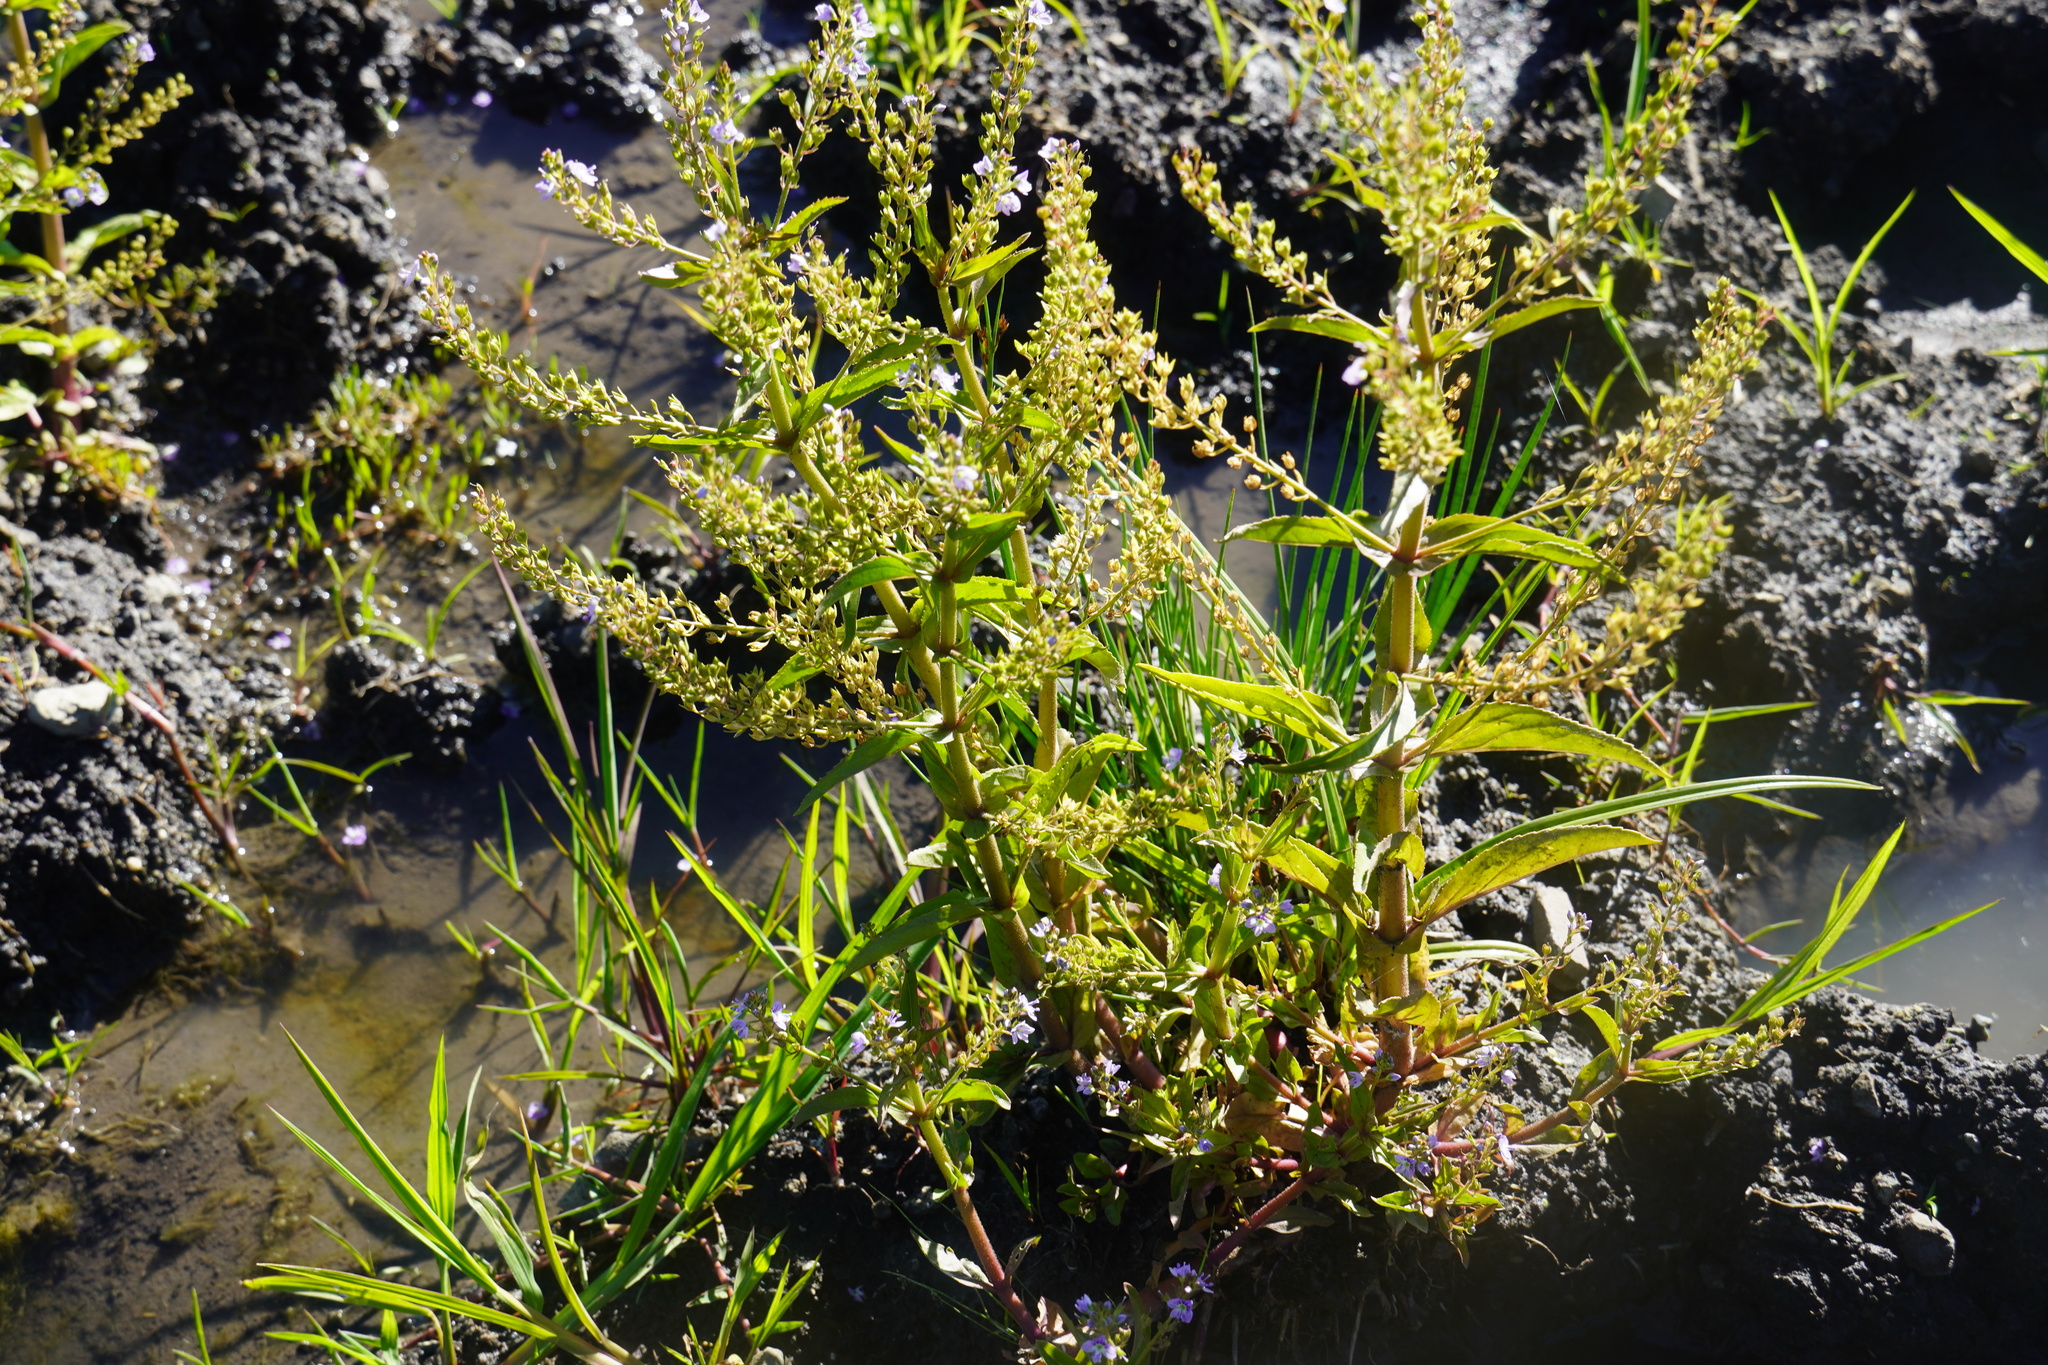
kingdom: Plantae
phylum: Tracheophyta
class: Magnoliopsida
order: Lamiales
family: Plantaginaceae
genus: Veronica
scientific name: Veronica anagallis-aquatica
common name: Water speedwell
